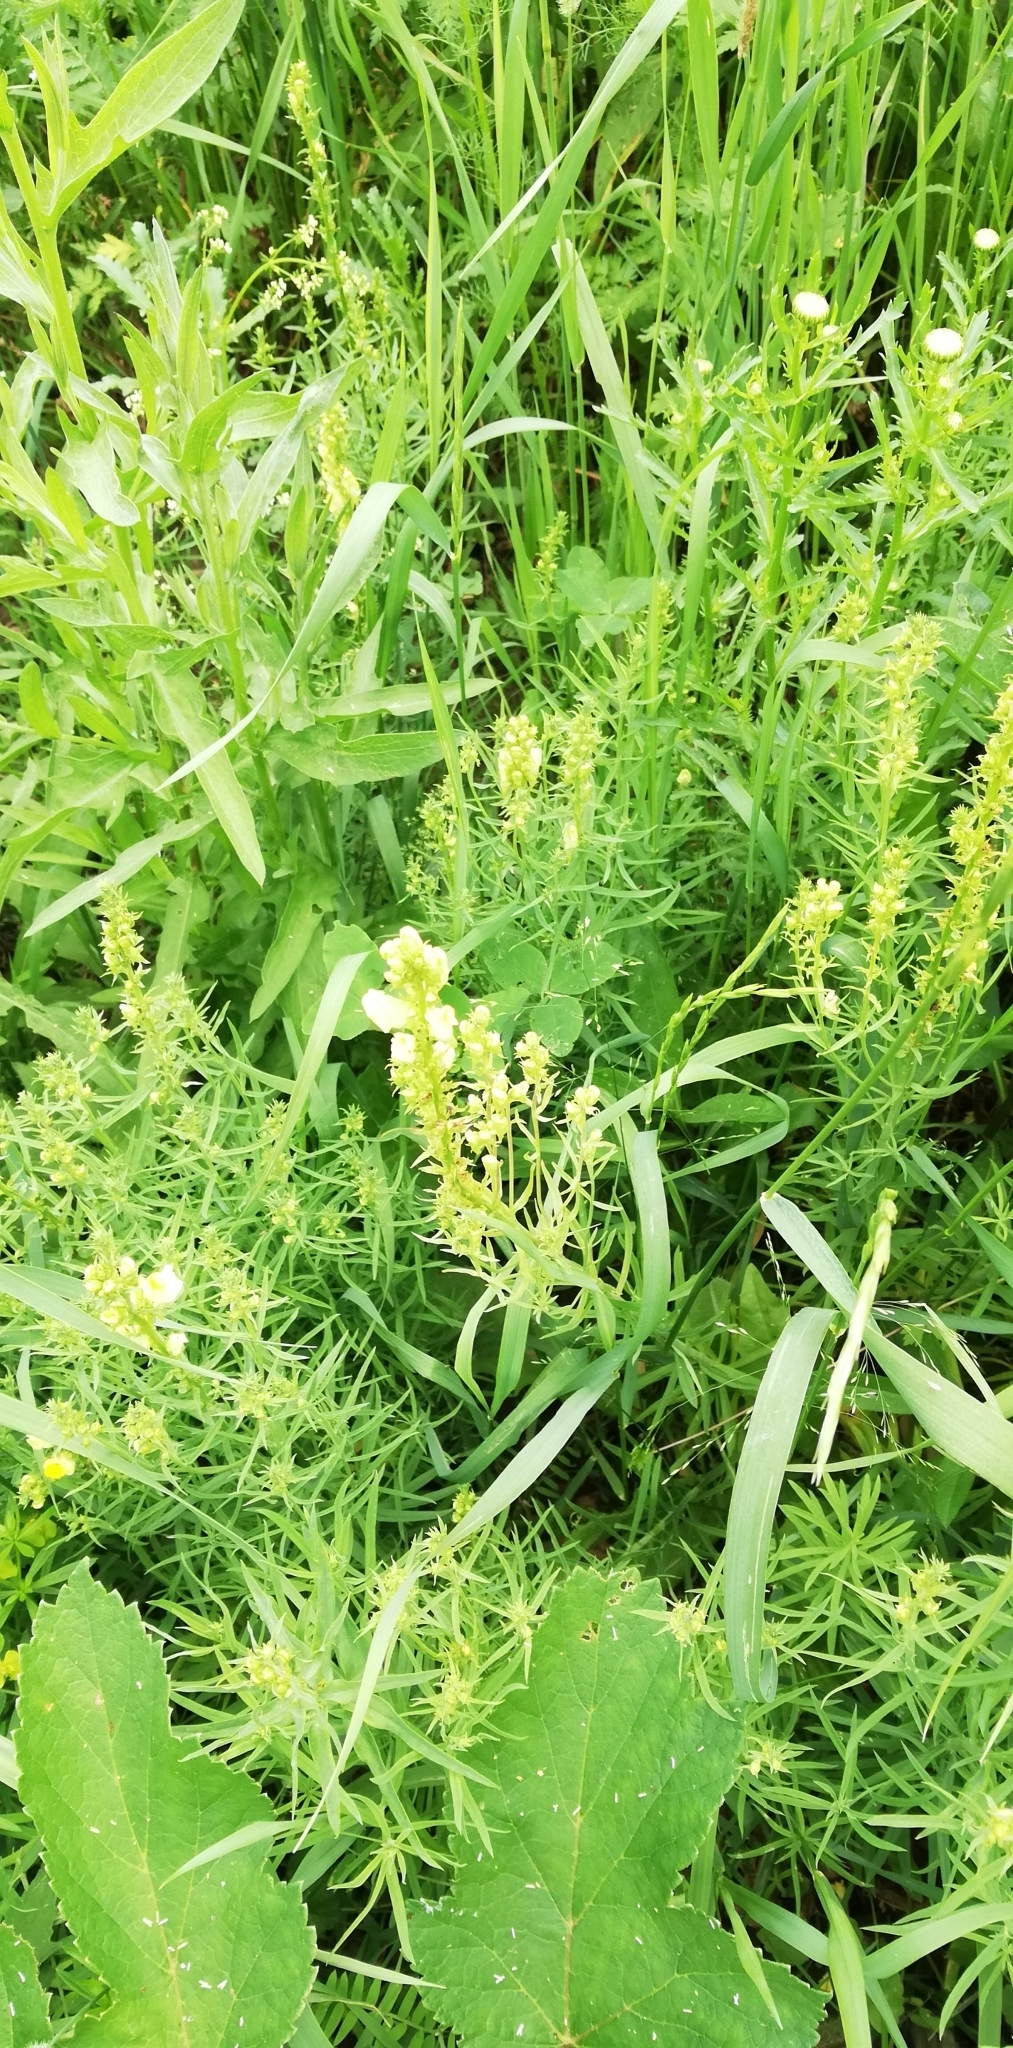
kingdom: Plantae
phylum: Tracheophyta
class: Magnoliopsida
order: Lamiales
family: Plantaginaceae
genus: Linaria
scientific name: Linaria vulgaris
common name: Butter and eggs
